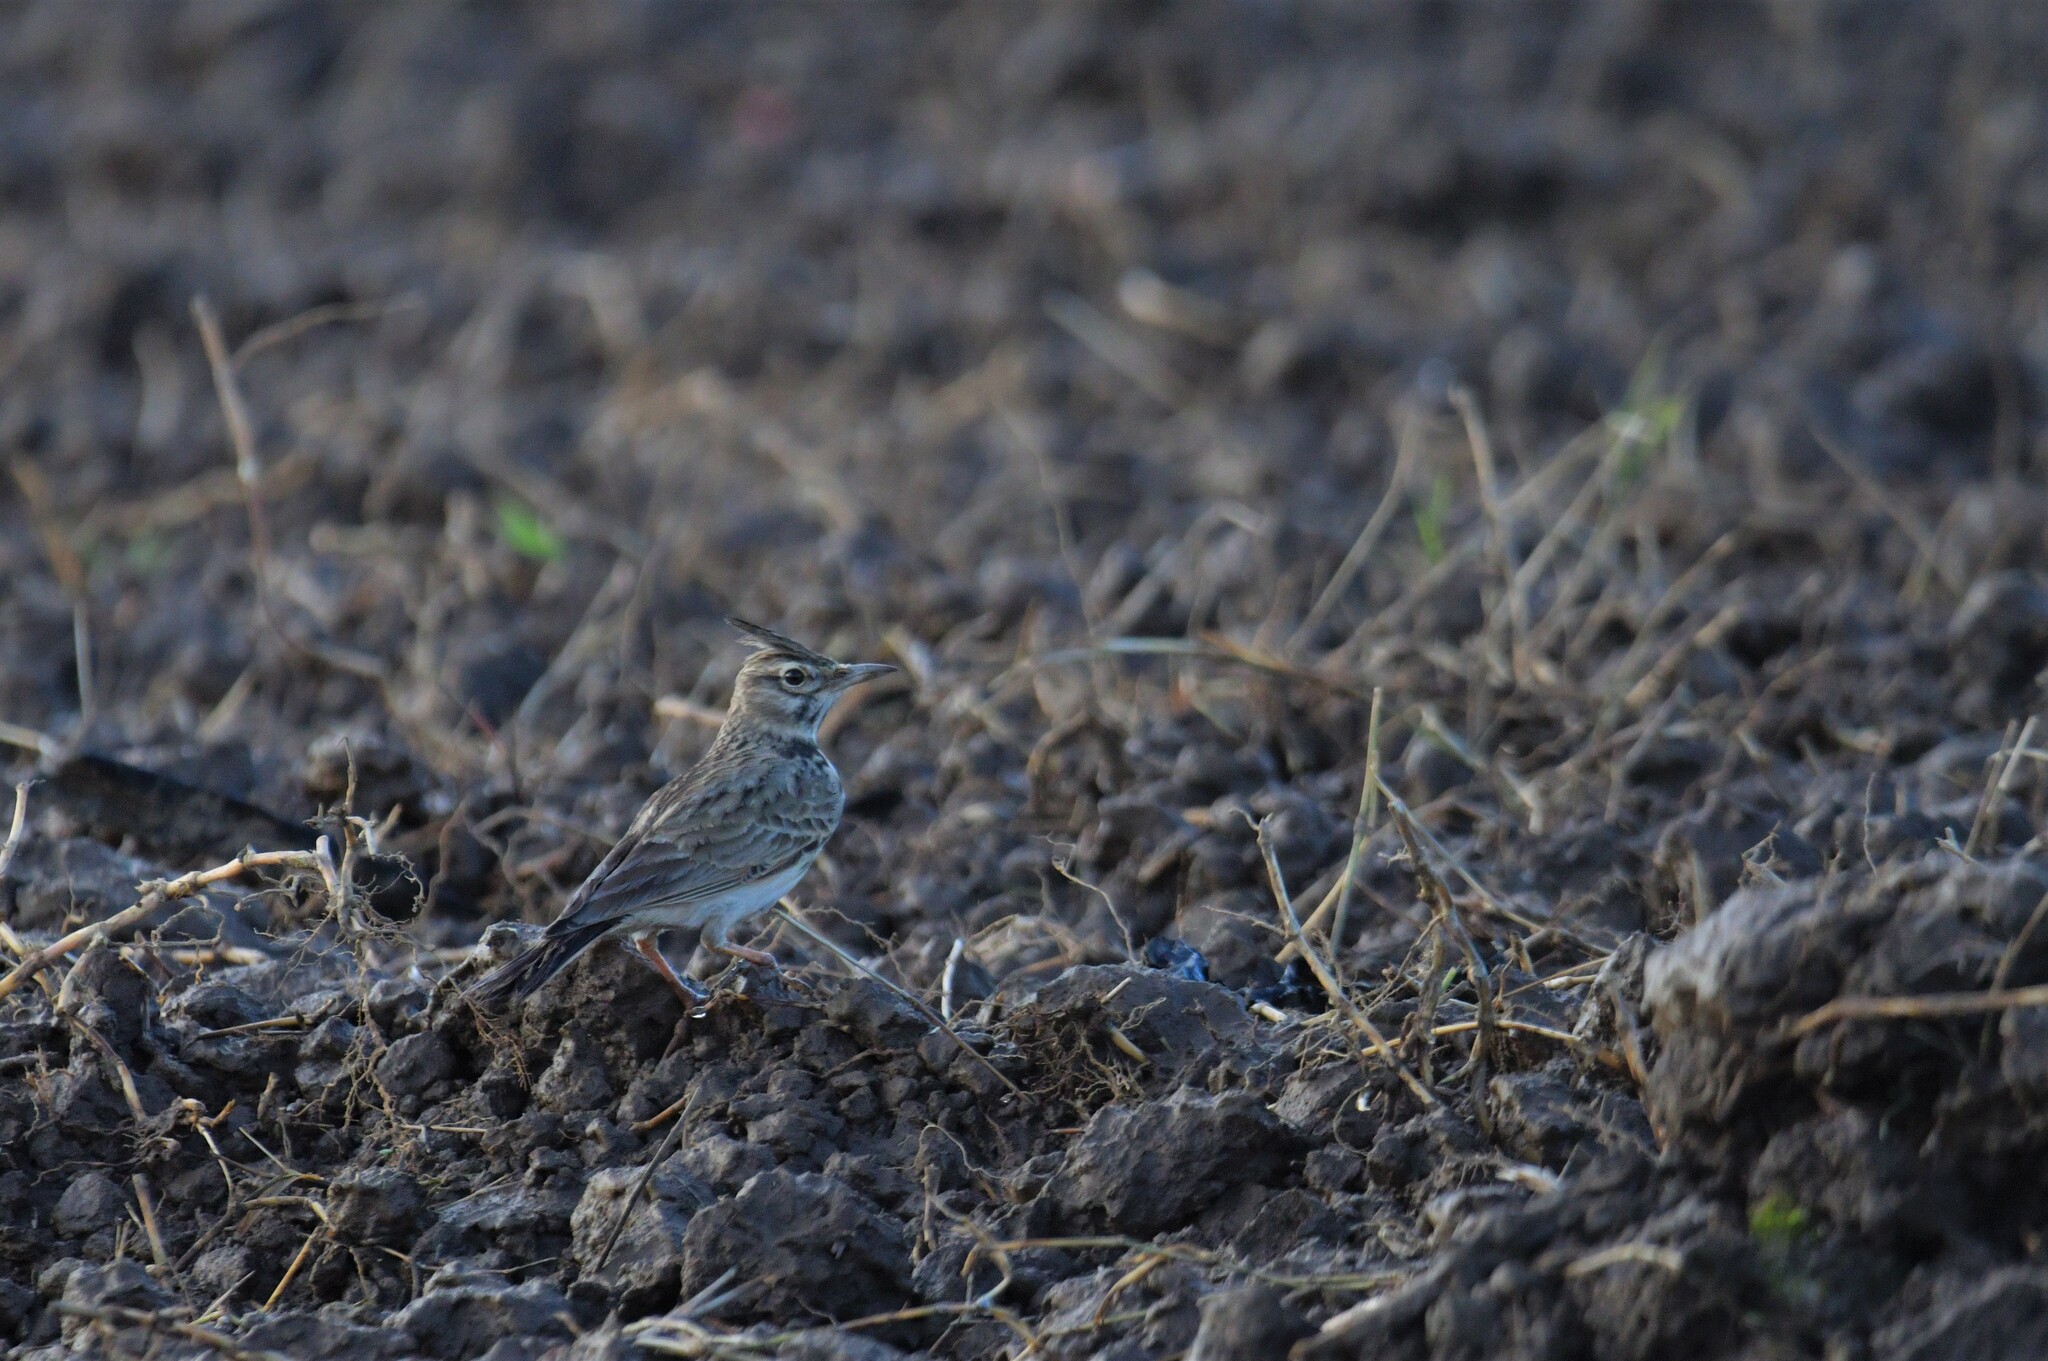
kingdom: Animalia
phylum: Chordata
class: Aves
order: Passeriformes
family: Alaudidae
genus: Galerida
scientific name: Galerida cristata
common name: Crested lark
